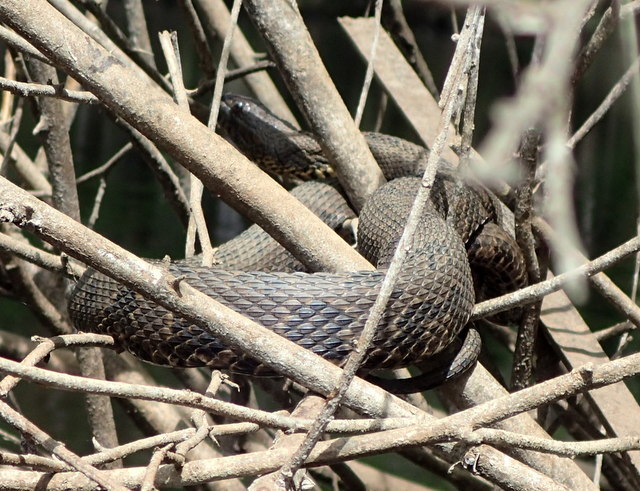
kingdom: Animalia
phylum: Chordata
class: Squamata
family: Colubridae
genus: Nerodia
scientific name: Nerodia taxispilota
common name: Brown water snake
